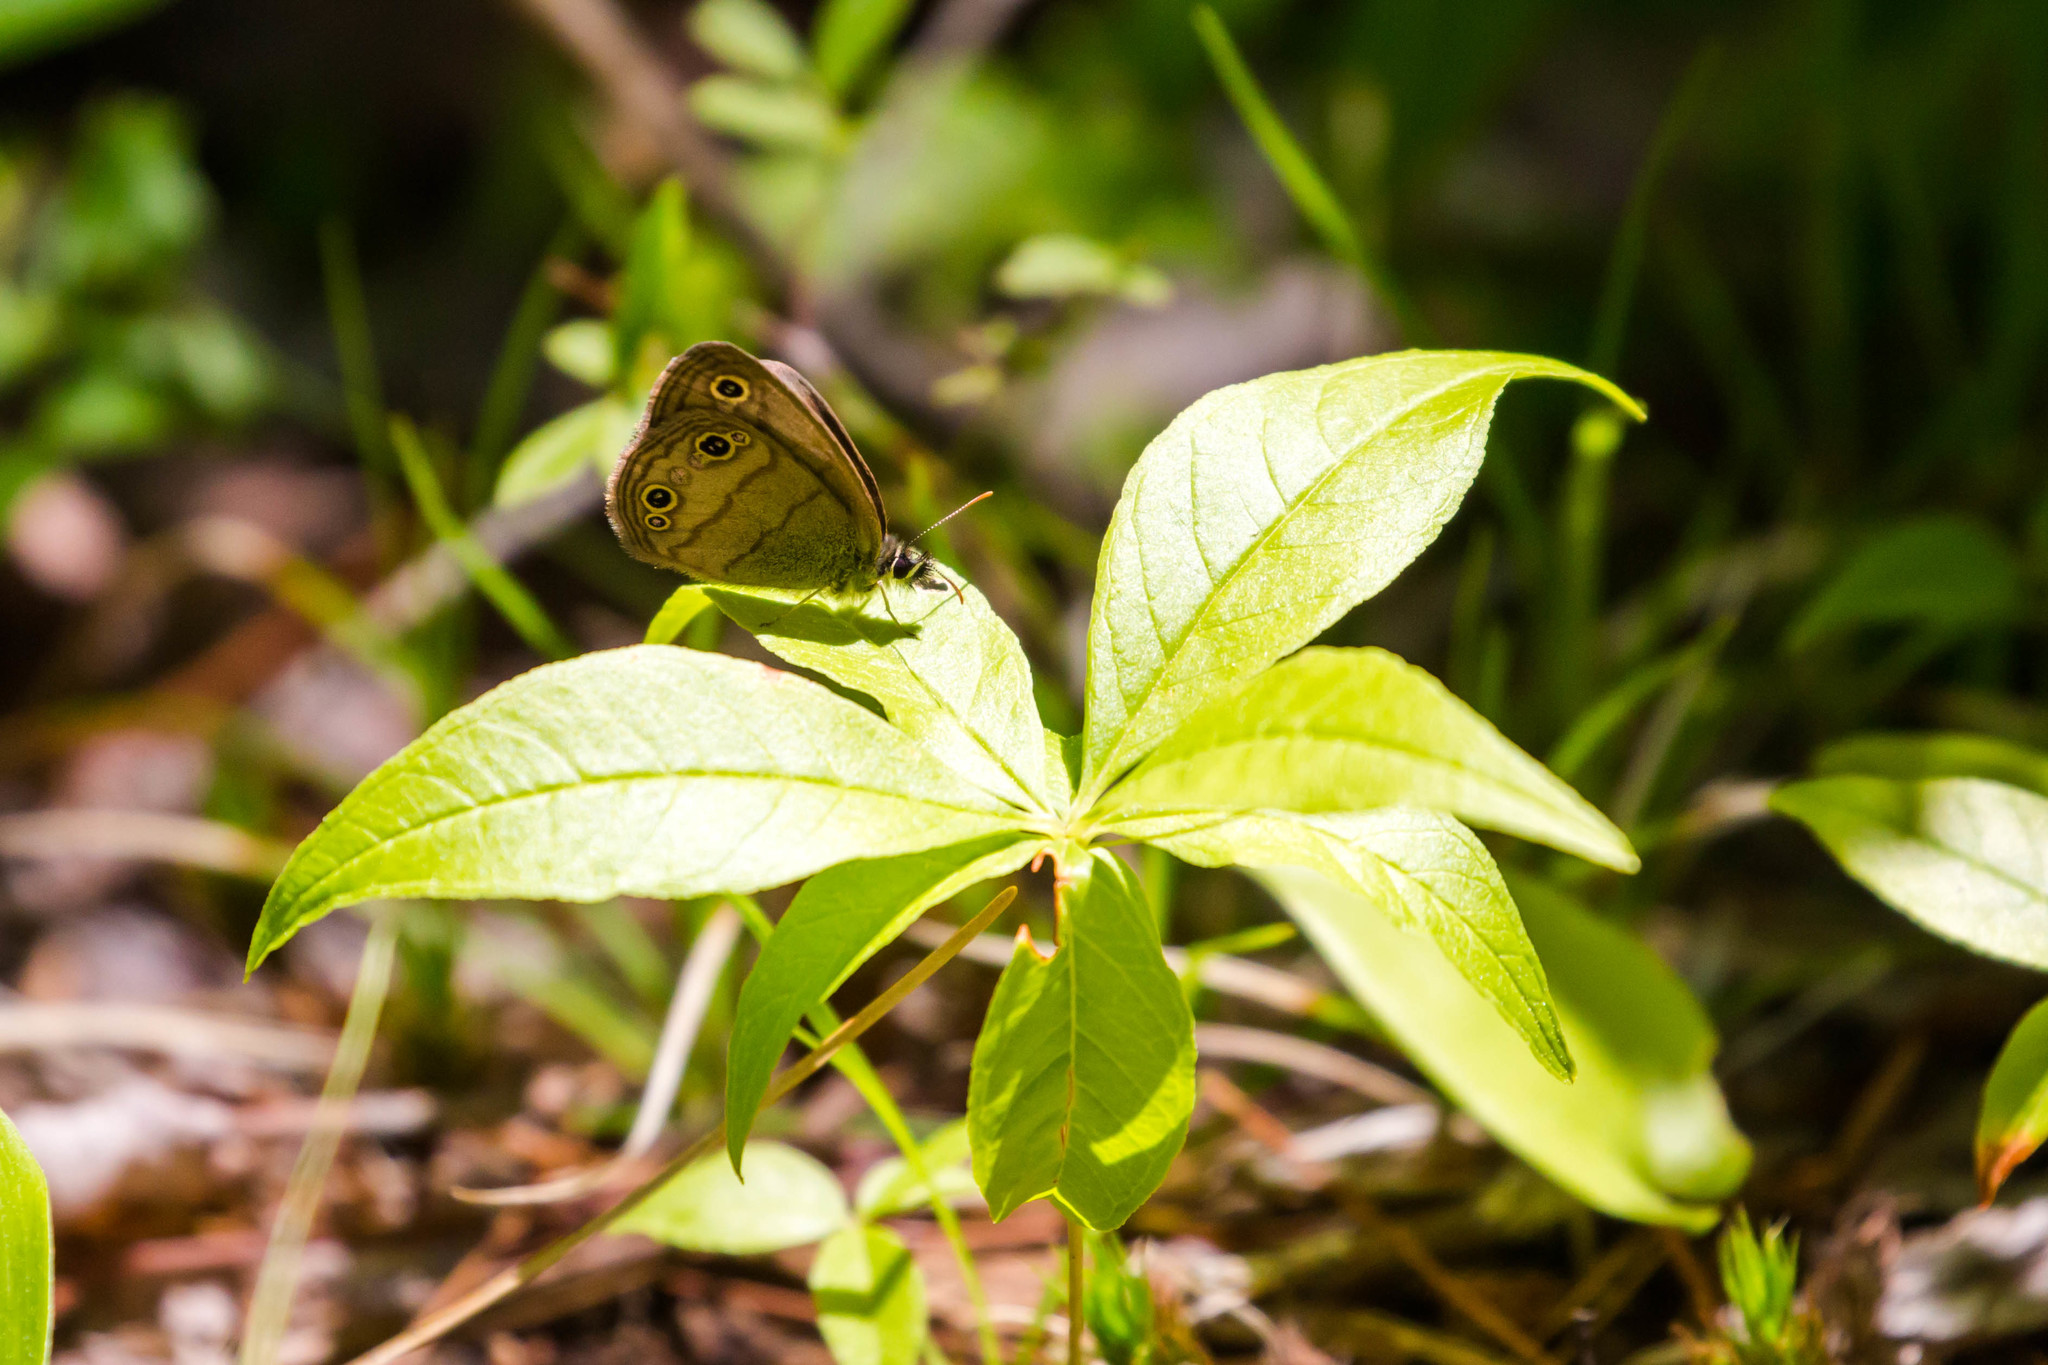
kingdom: Animalia
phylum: Arthropoda
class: Insecta
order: Lepidoptera
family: Nymphalidae
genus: Euptychia
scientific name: Euptychia cymela
